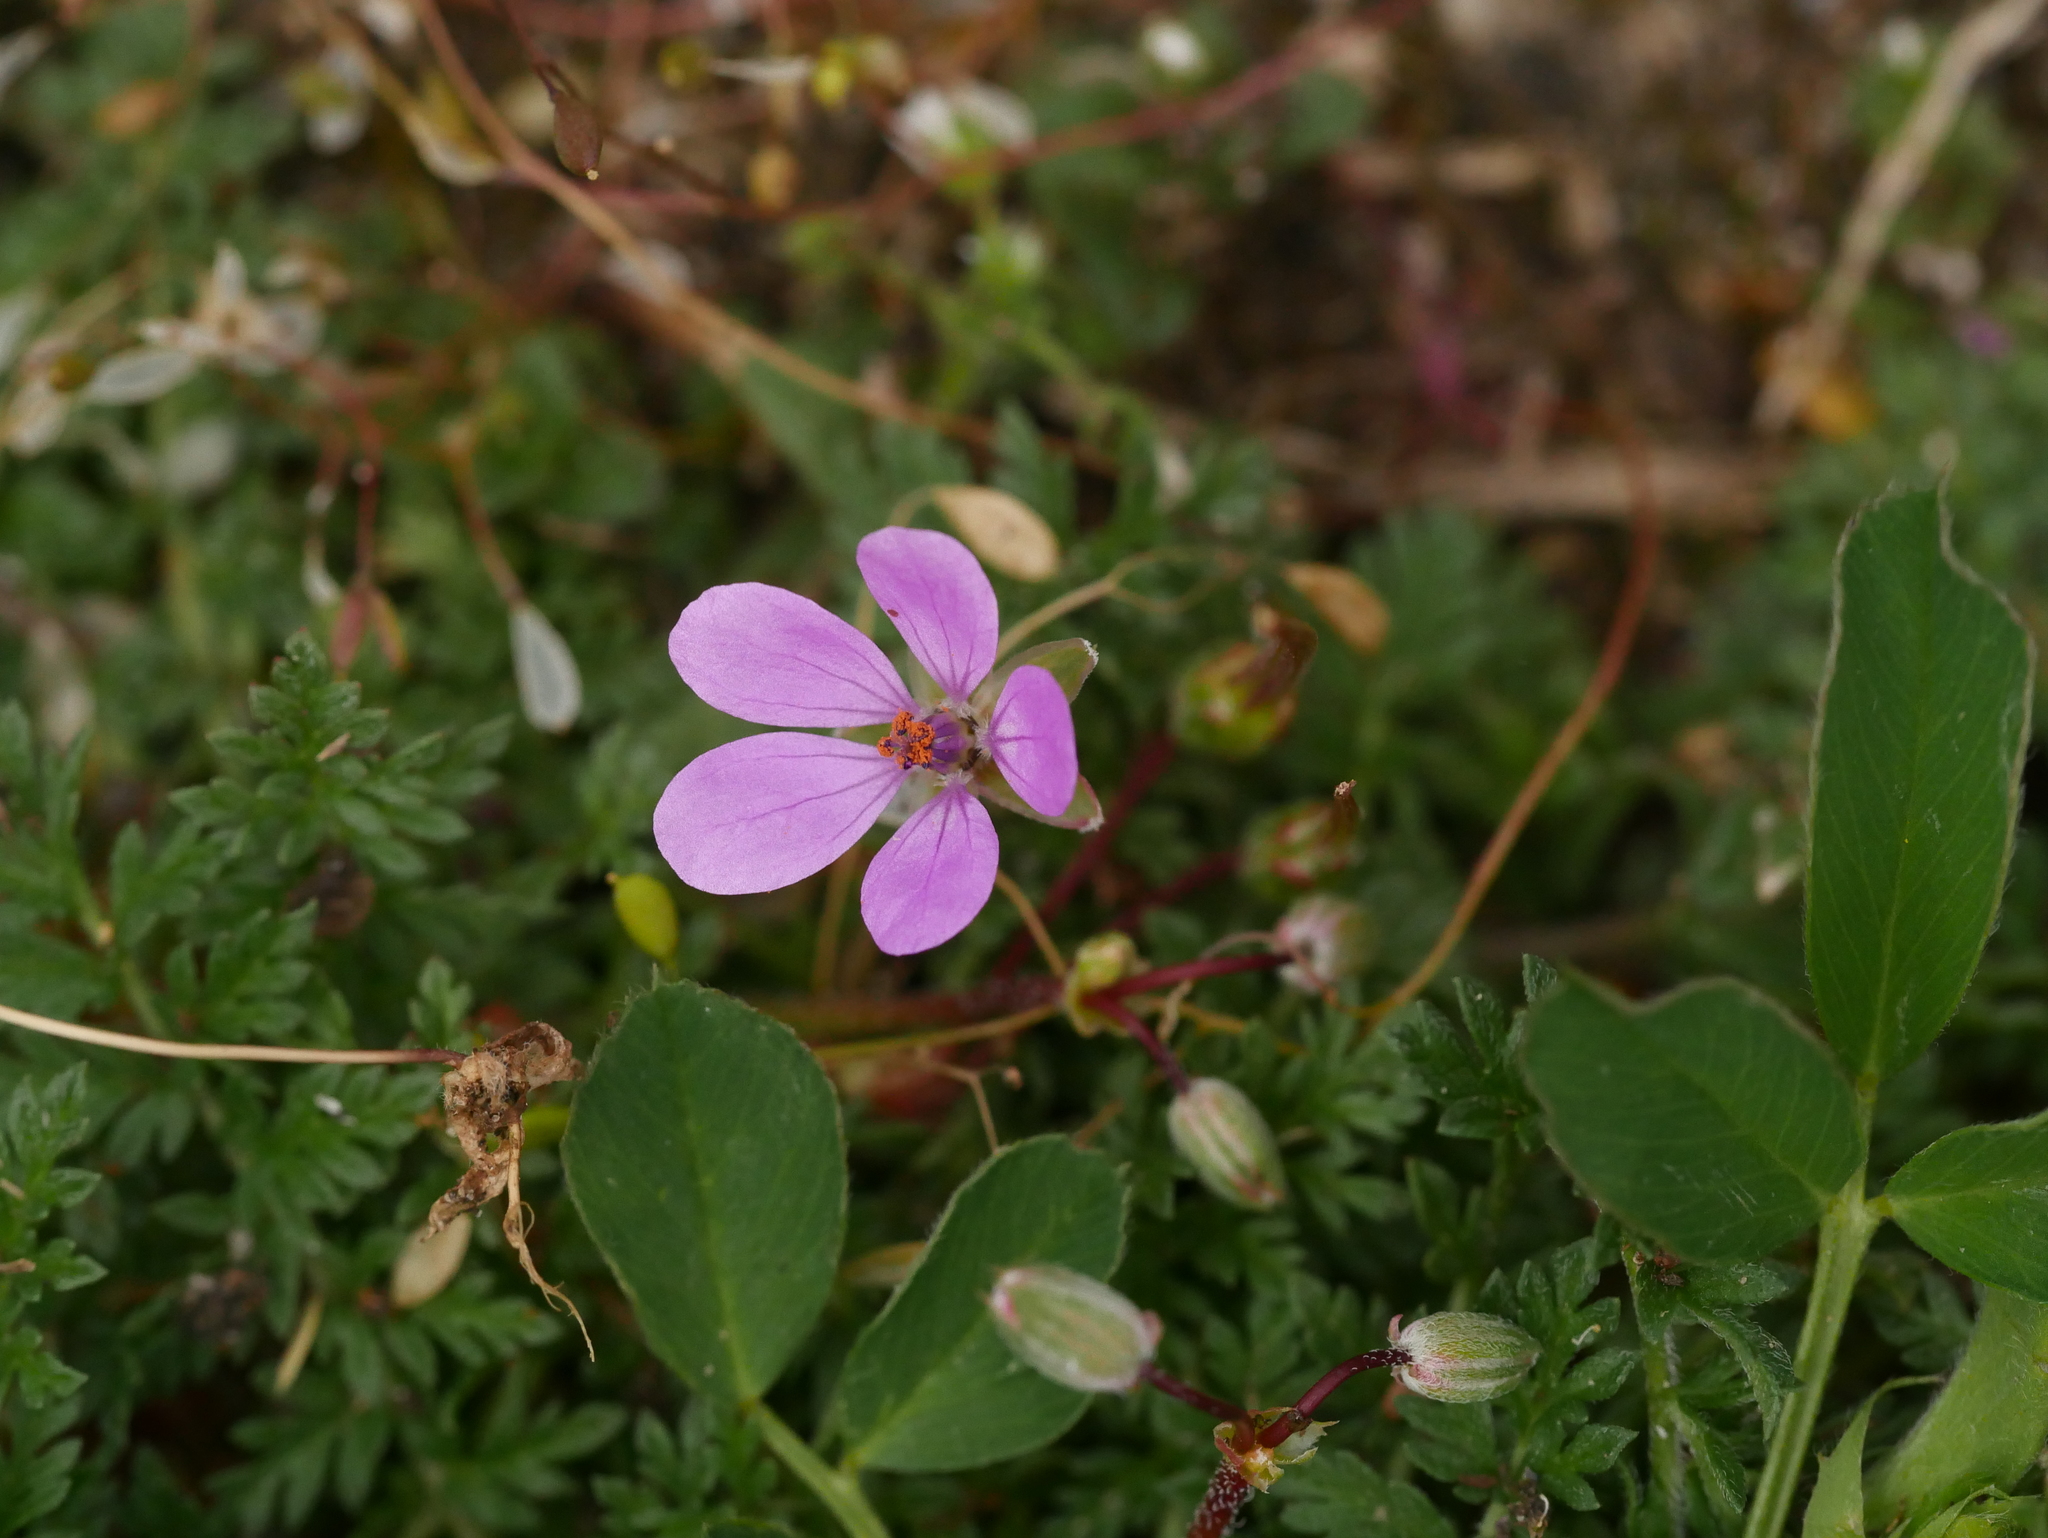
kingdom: Plantae
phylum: Tracheophyta
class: Magnoliopsida
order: Geraniales
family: Geraniaceae
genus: Erodium
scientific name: Erodium cicutarium
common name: Common stork's-bill
